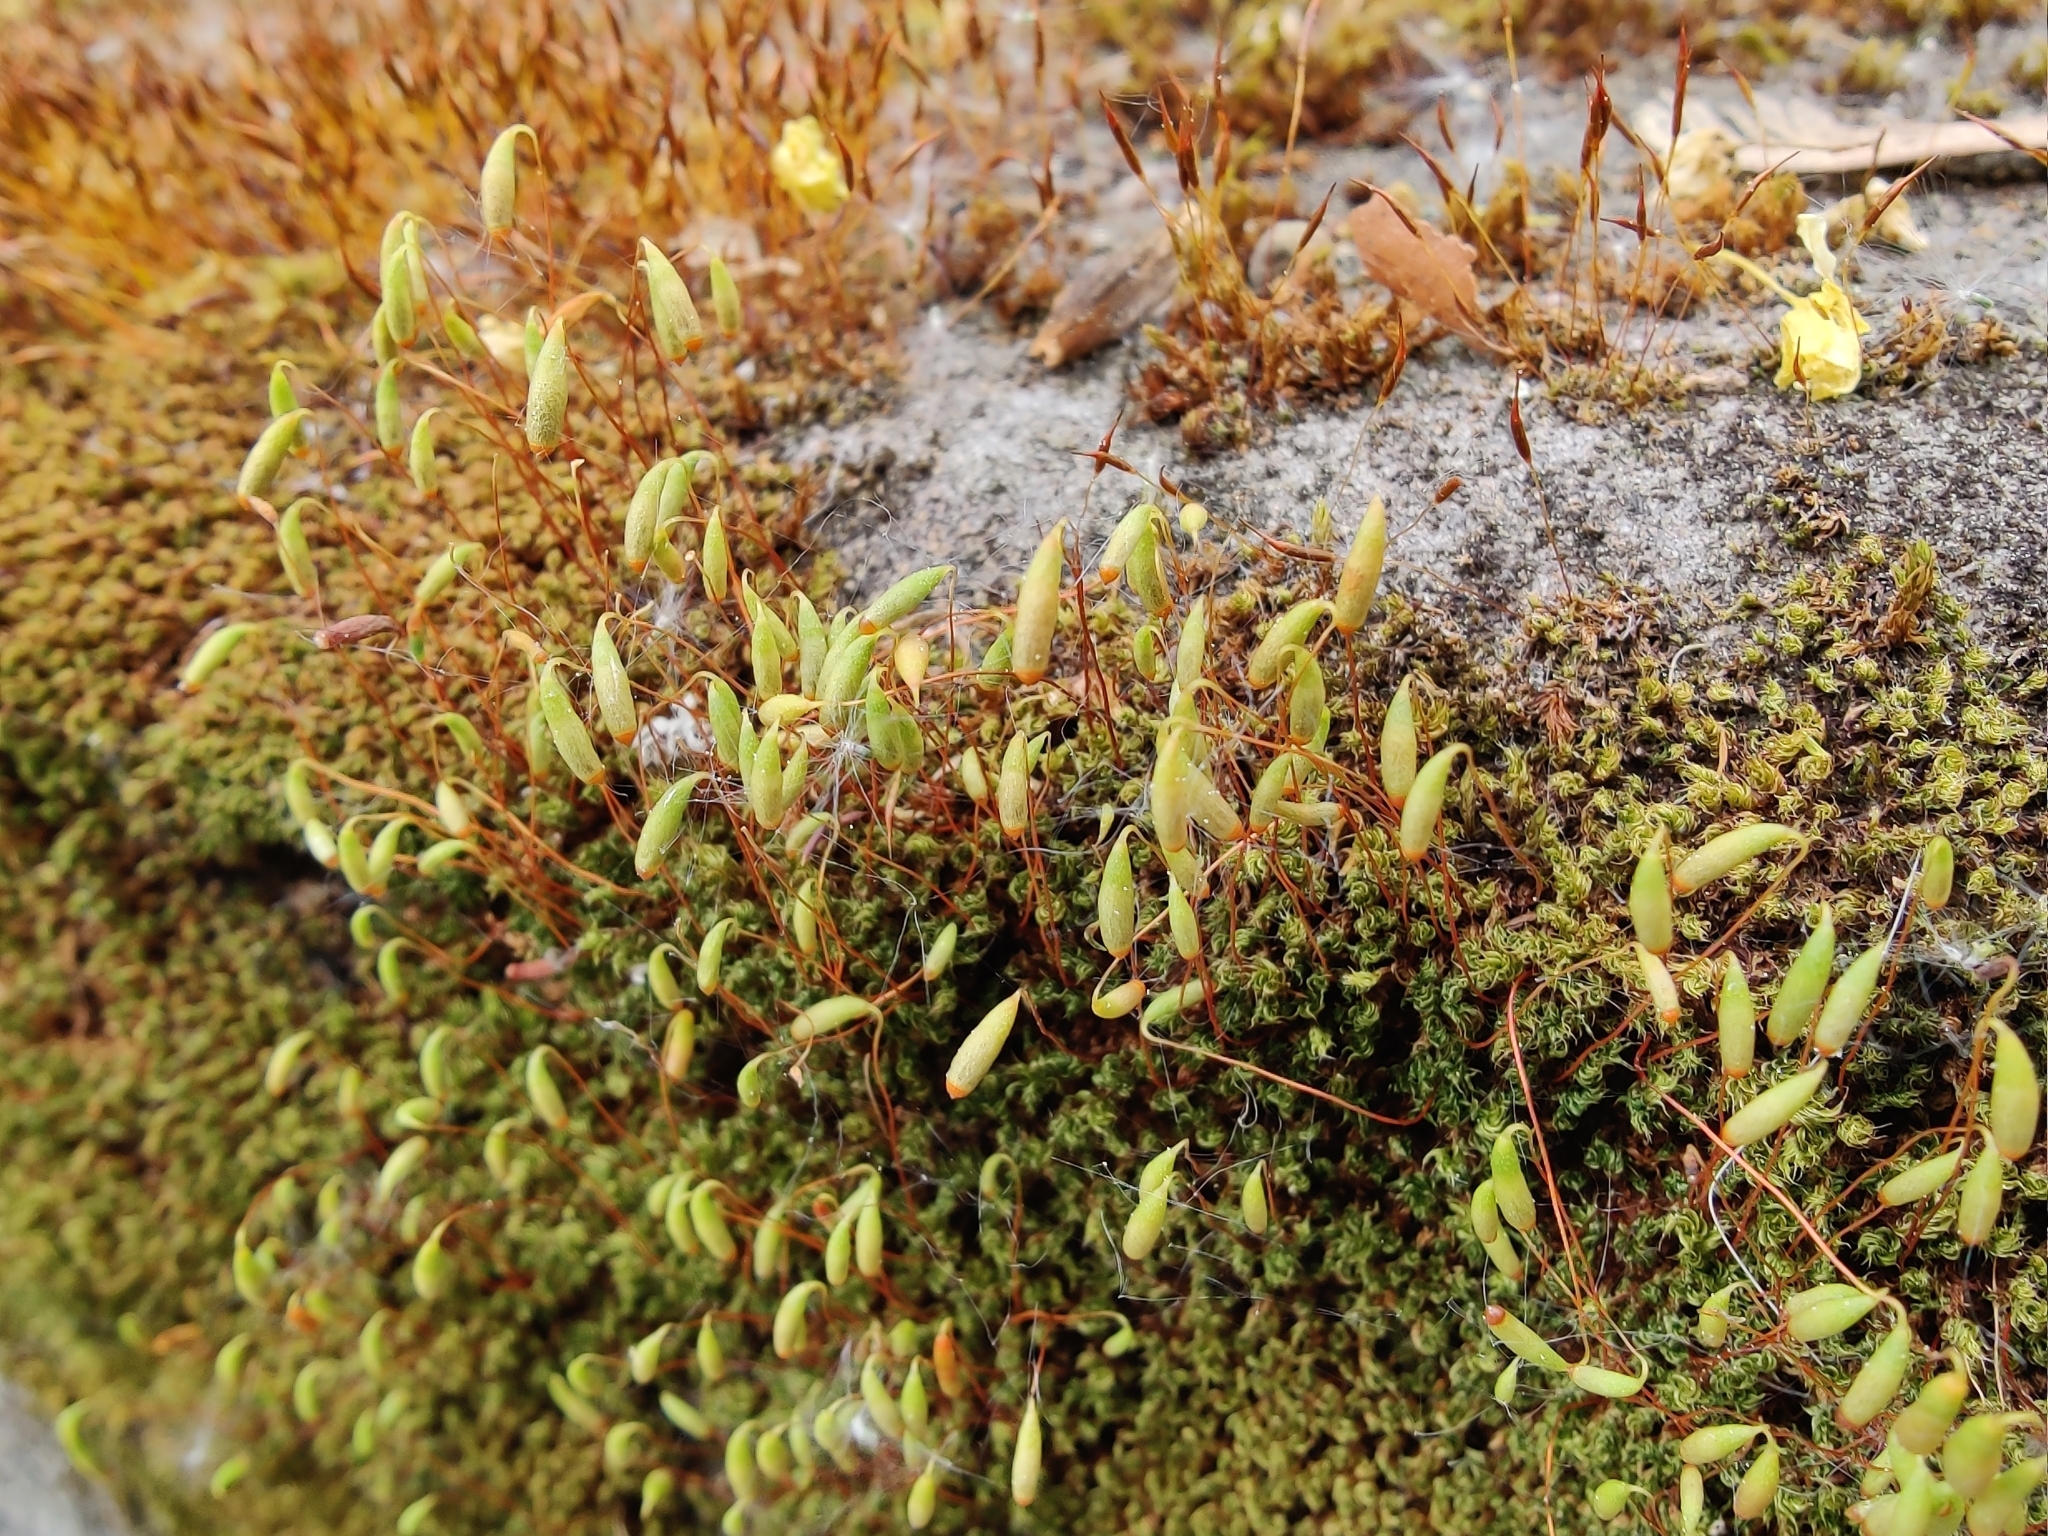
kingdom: Plantae
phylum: Bryophyta
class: Bryopsida
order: Bryales
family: Bryaceae
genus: Rosulabryum
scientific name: Rosulabryum capillare
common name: Capillary thread-moss
